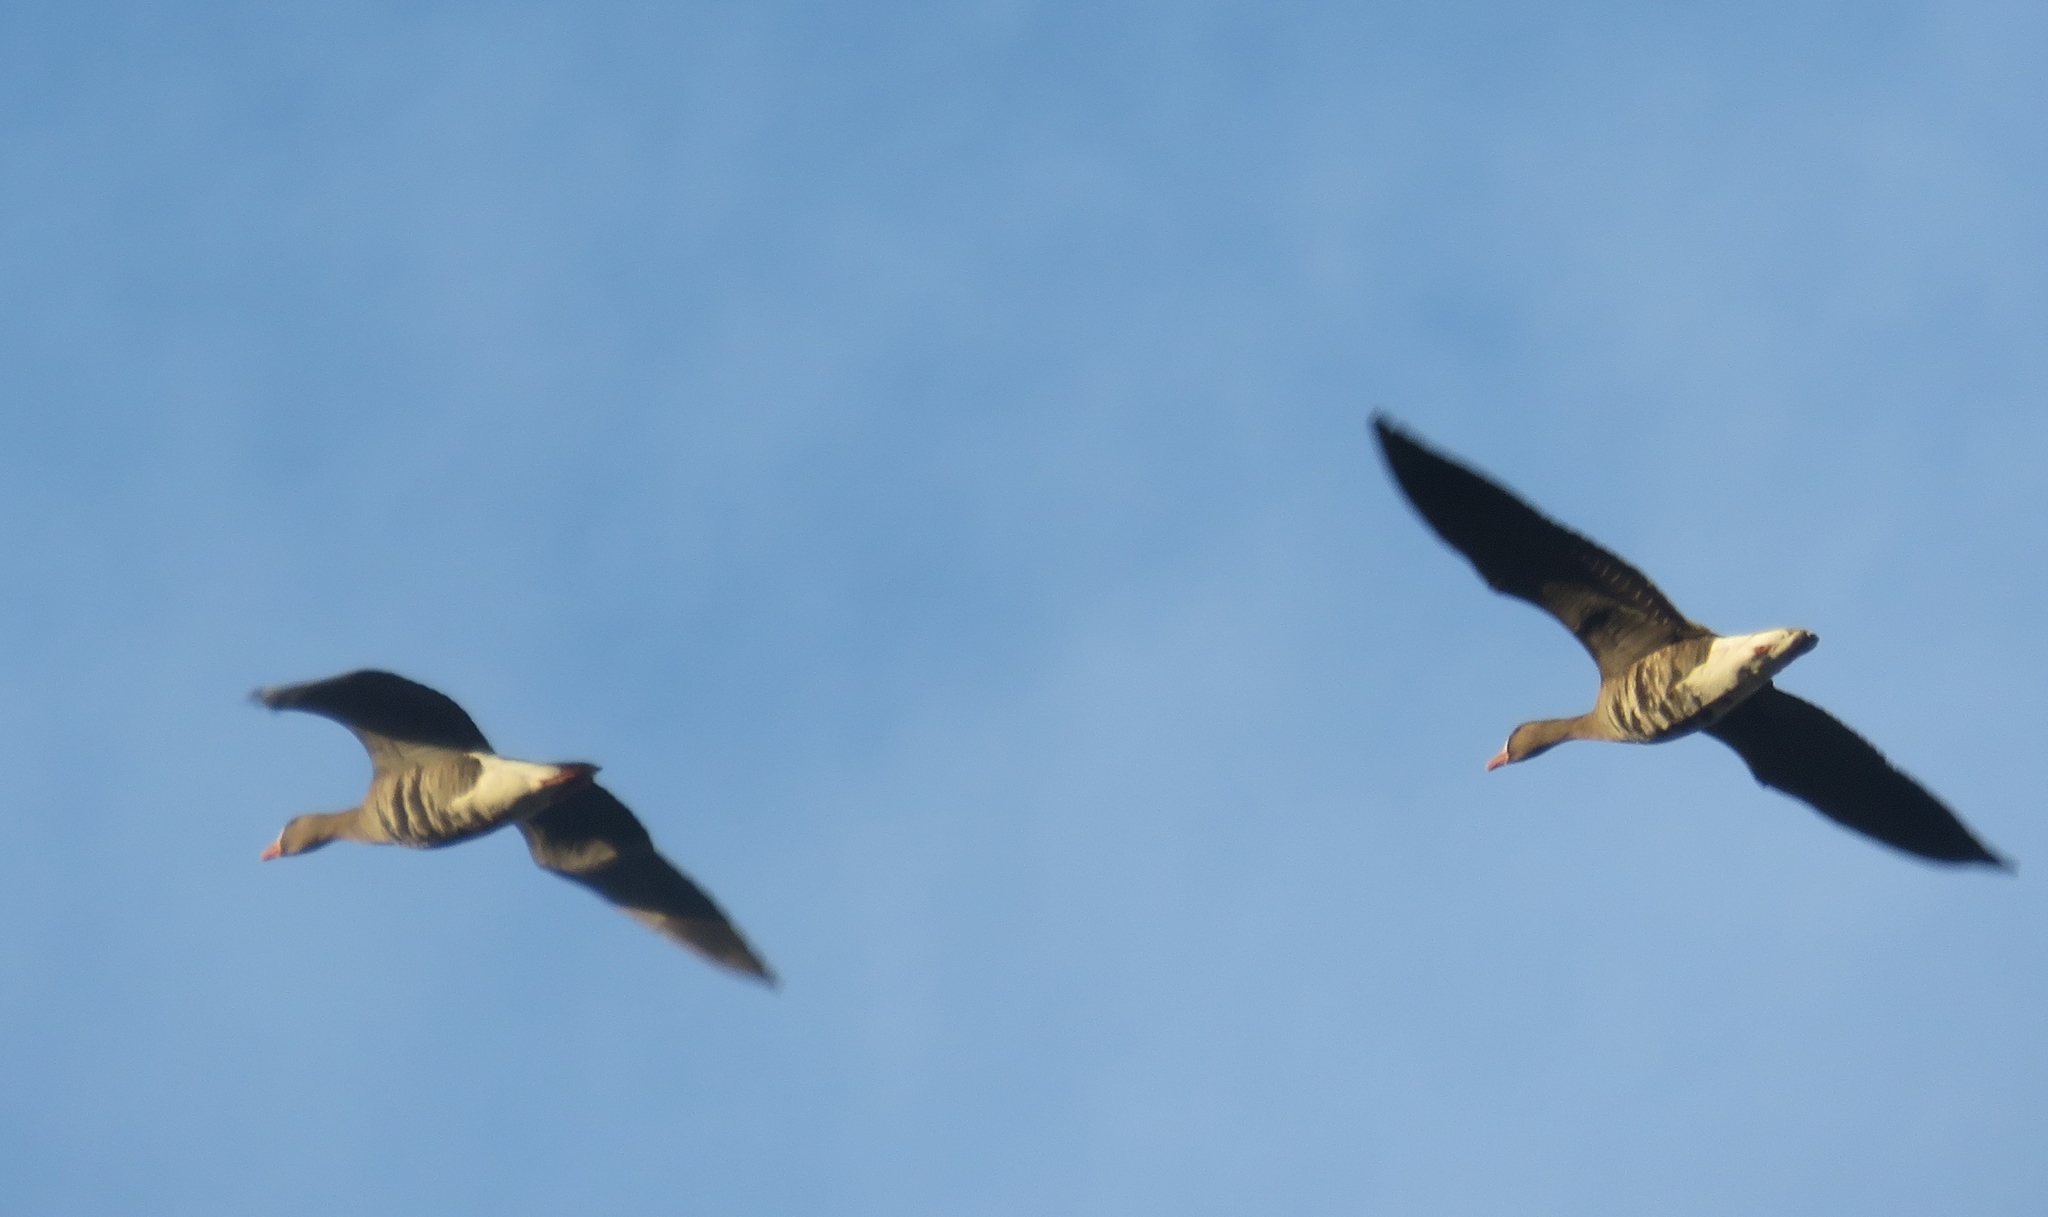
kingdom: Animalia
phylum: Chordata
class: Aves
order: Anseriformes
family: Anatidae
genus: Anser
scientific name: Anser albifrons
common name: Greater white-fronted goose
